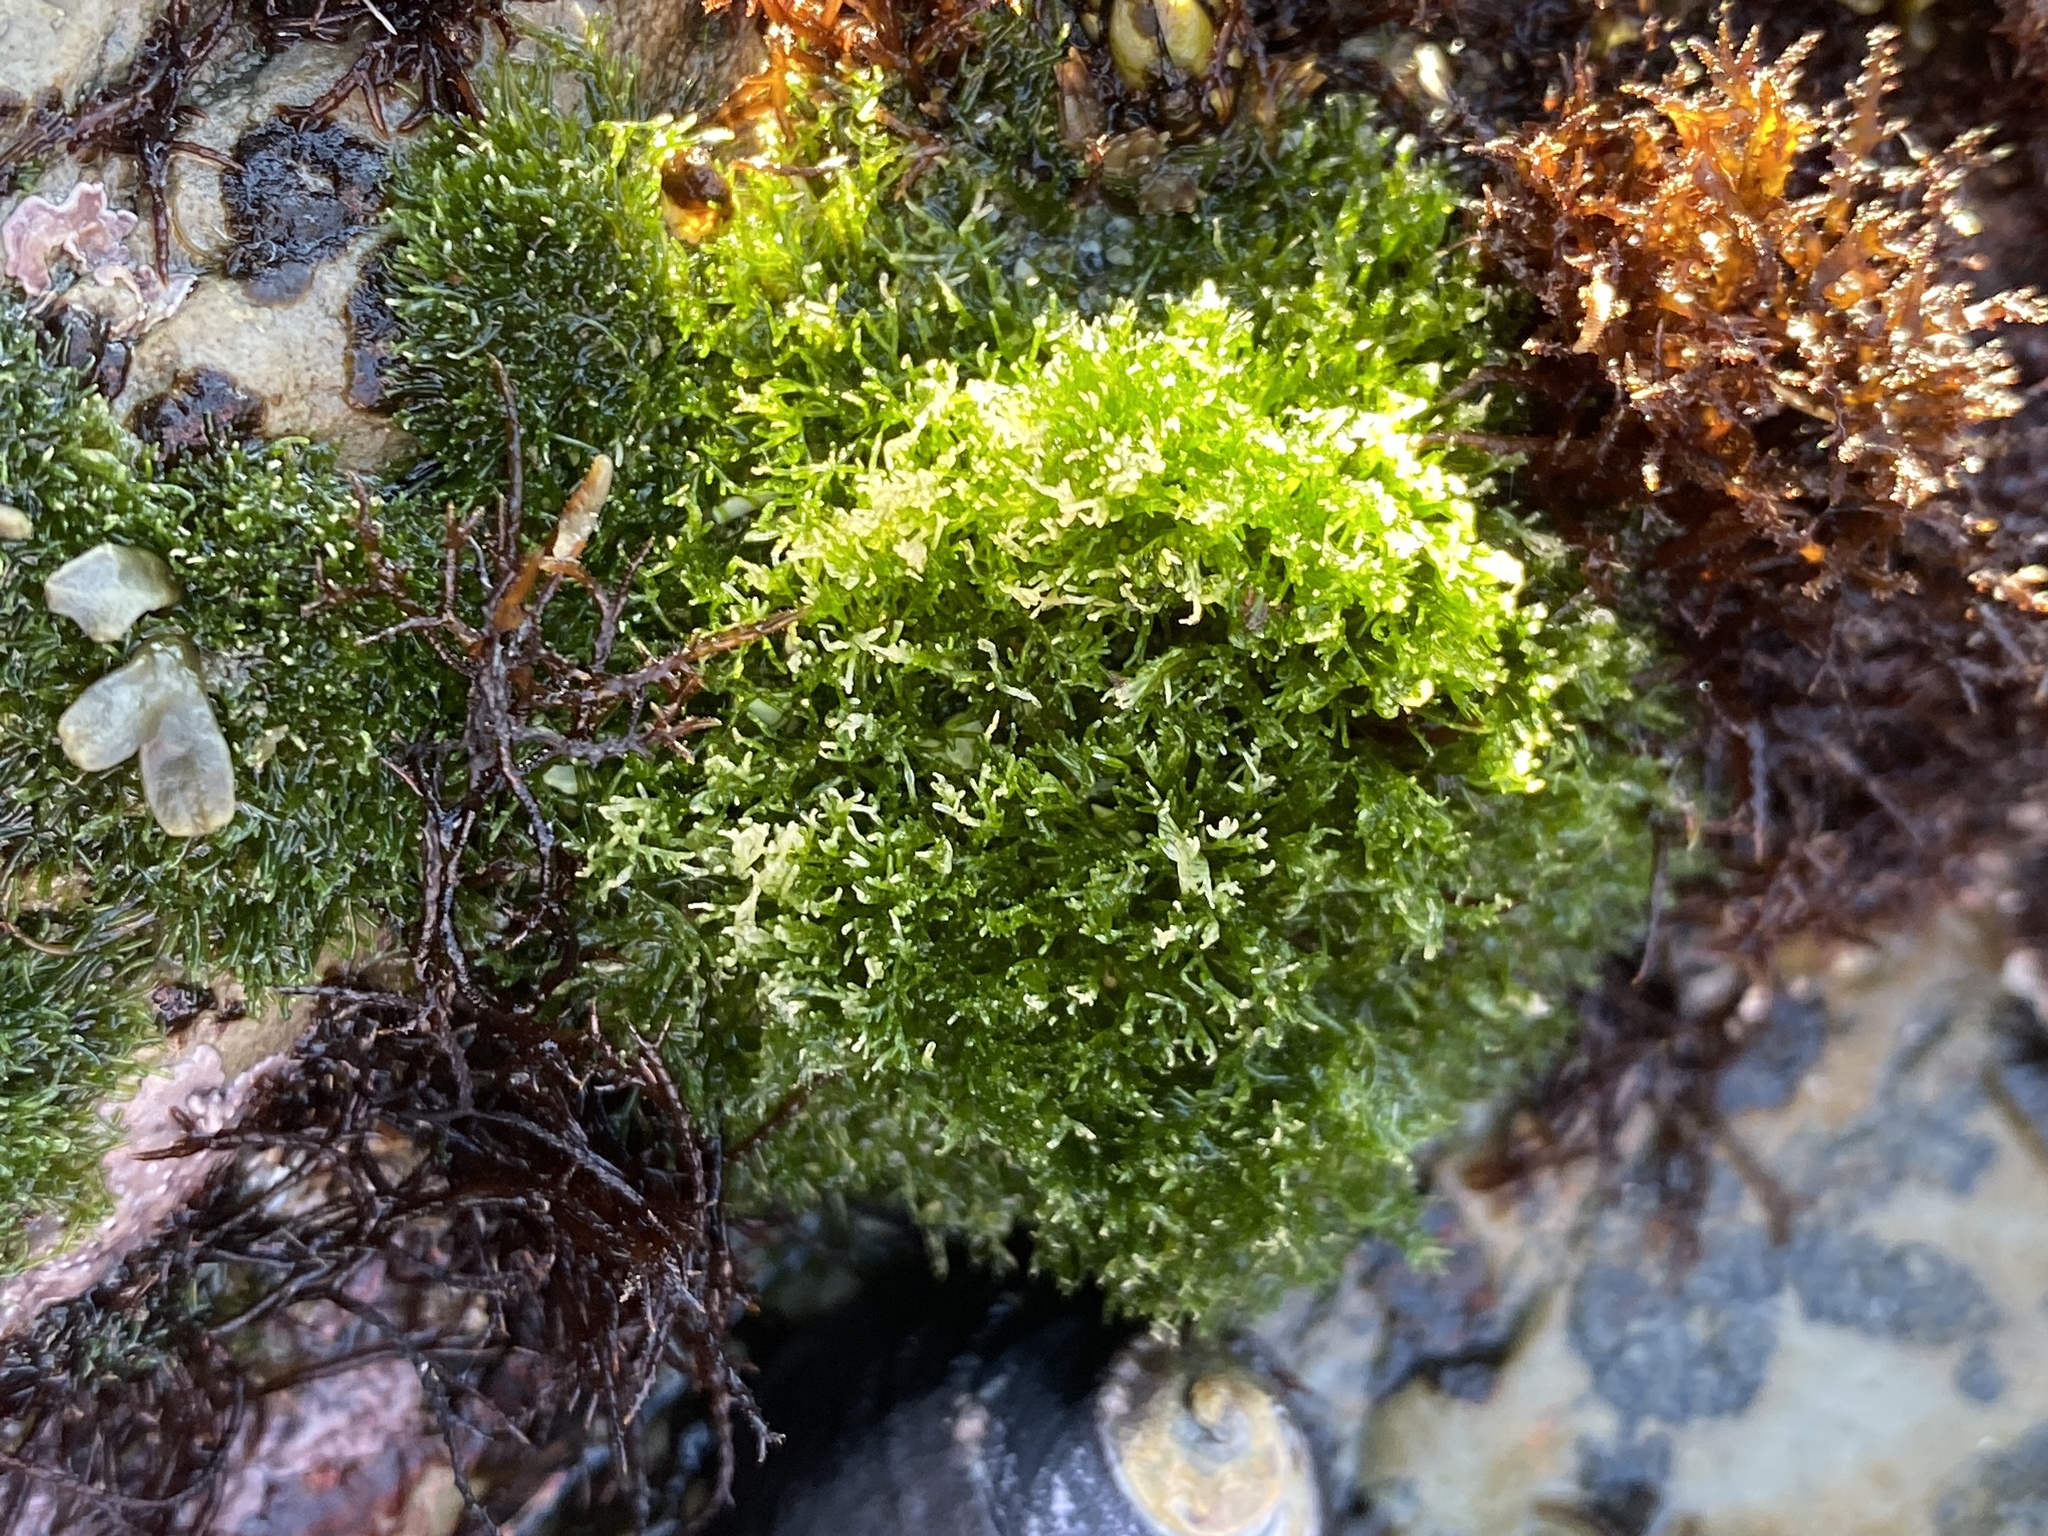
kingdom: Plantae
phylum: Chlorophyta
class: Ulvophyceae
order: Cladophorales
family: Cladophoraceae
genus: Cladophora
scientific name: Cladophora columbiana
